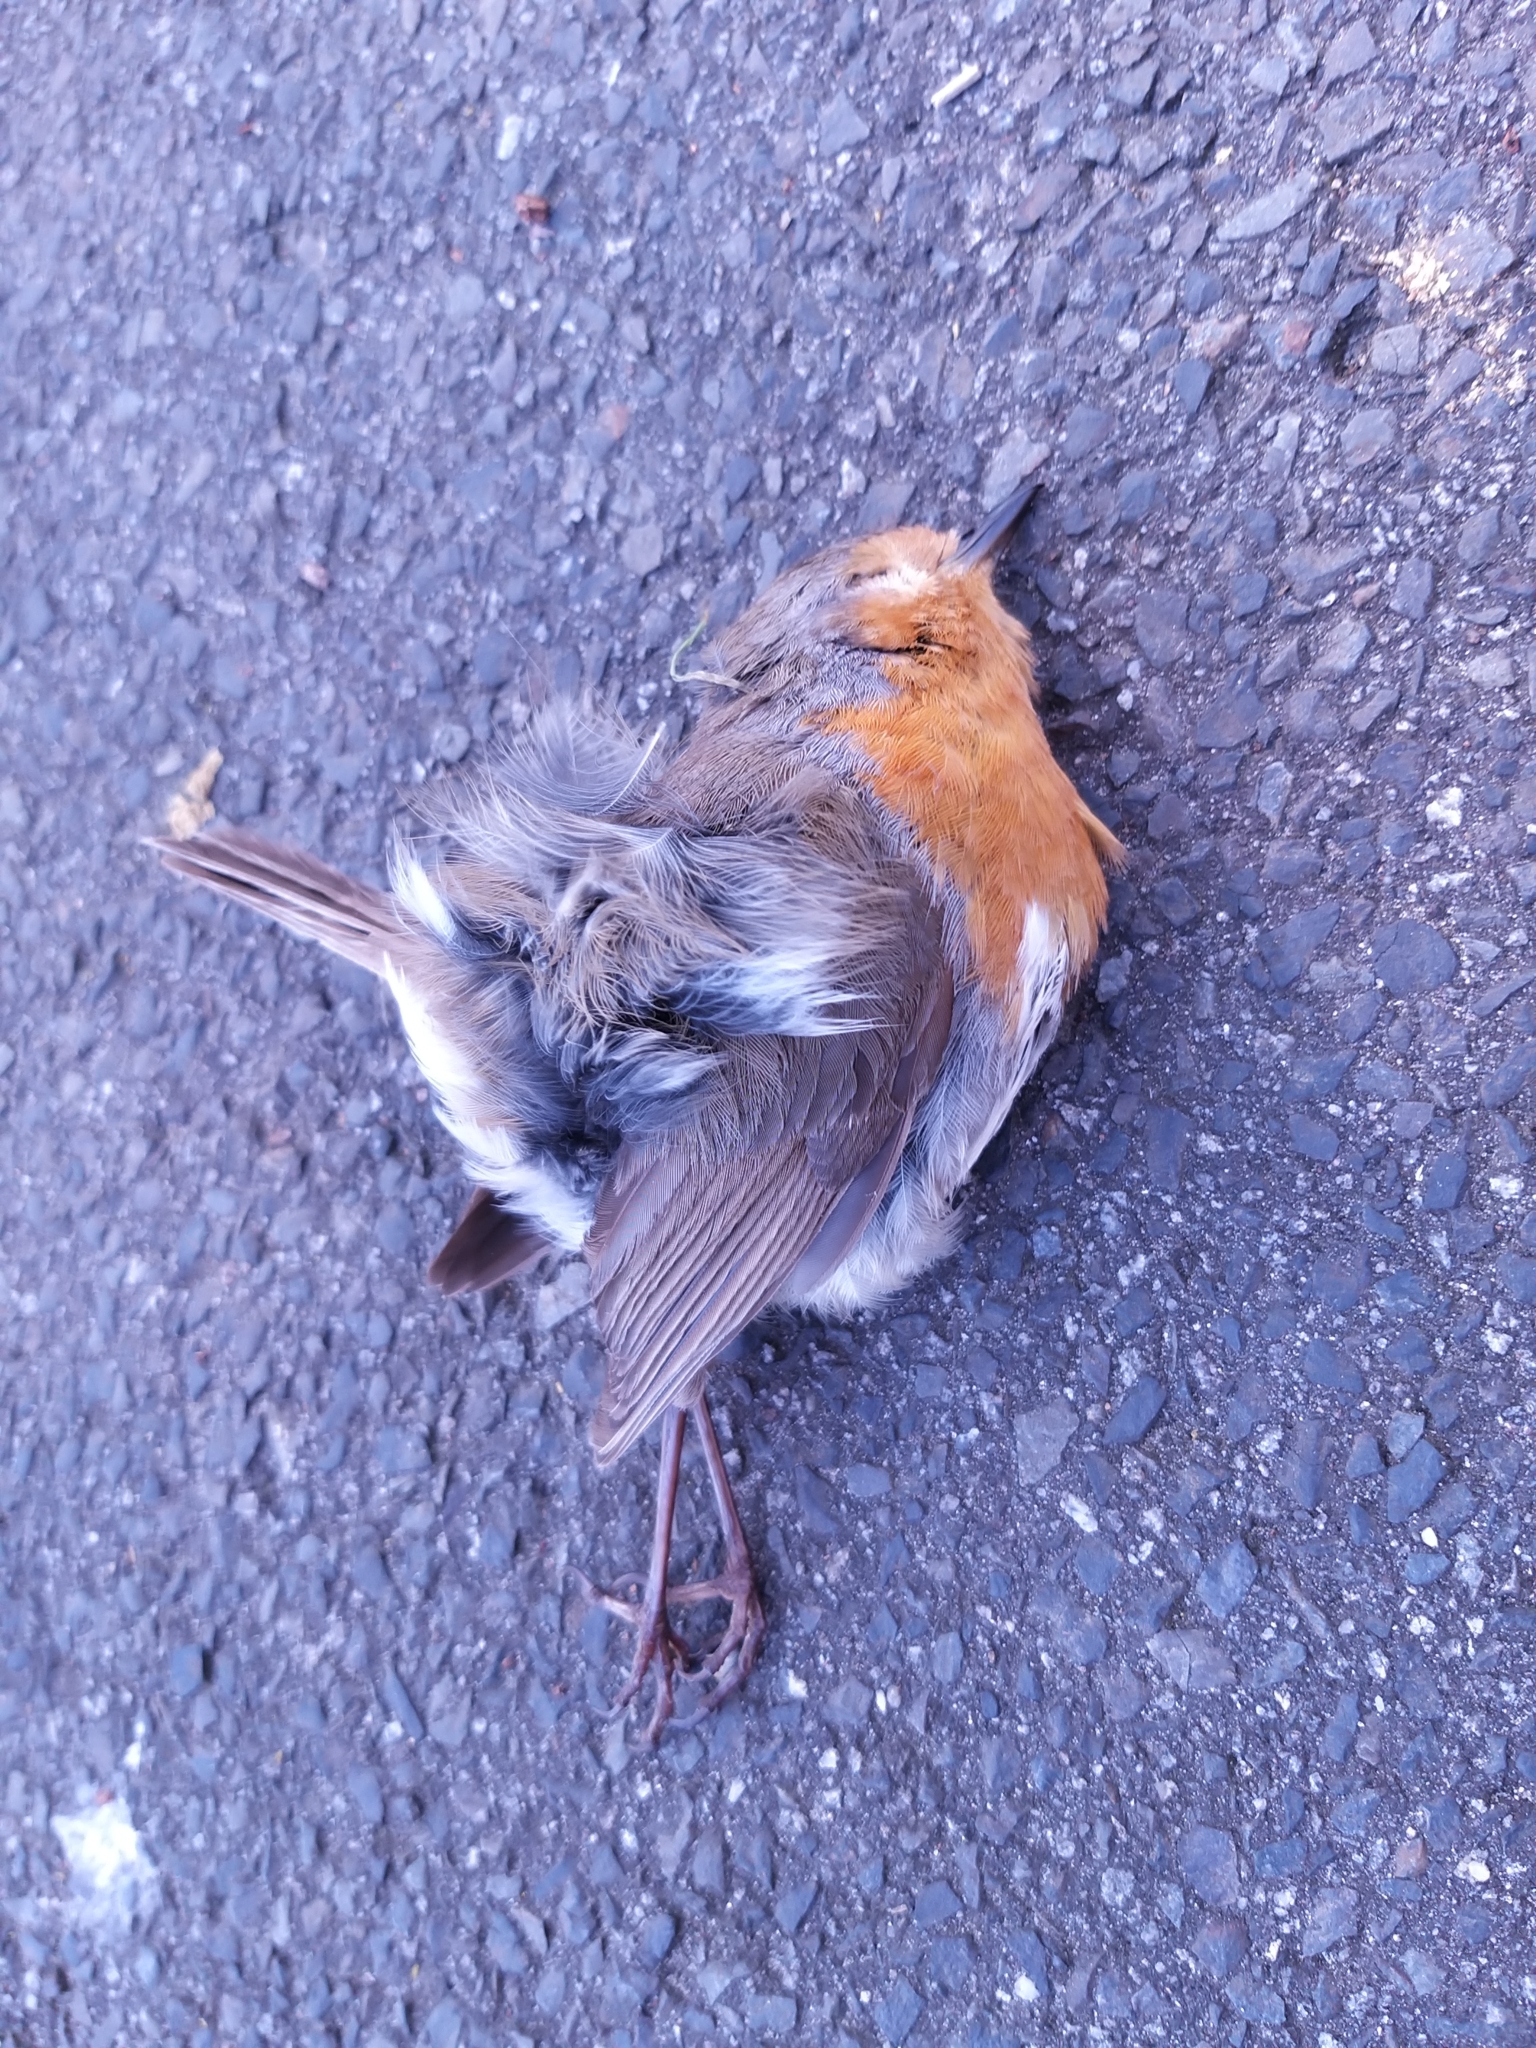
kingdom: Animalia
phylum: Chordata
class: Aves
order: Passeriformes
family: Muscicapidae
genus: Erithacus
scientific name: Erithacus rubecula
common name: European robin
